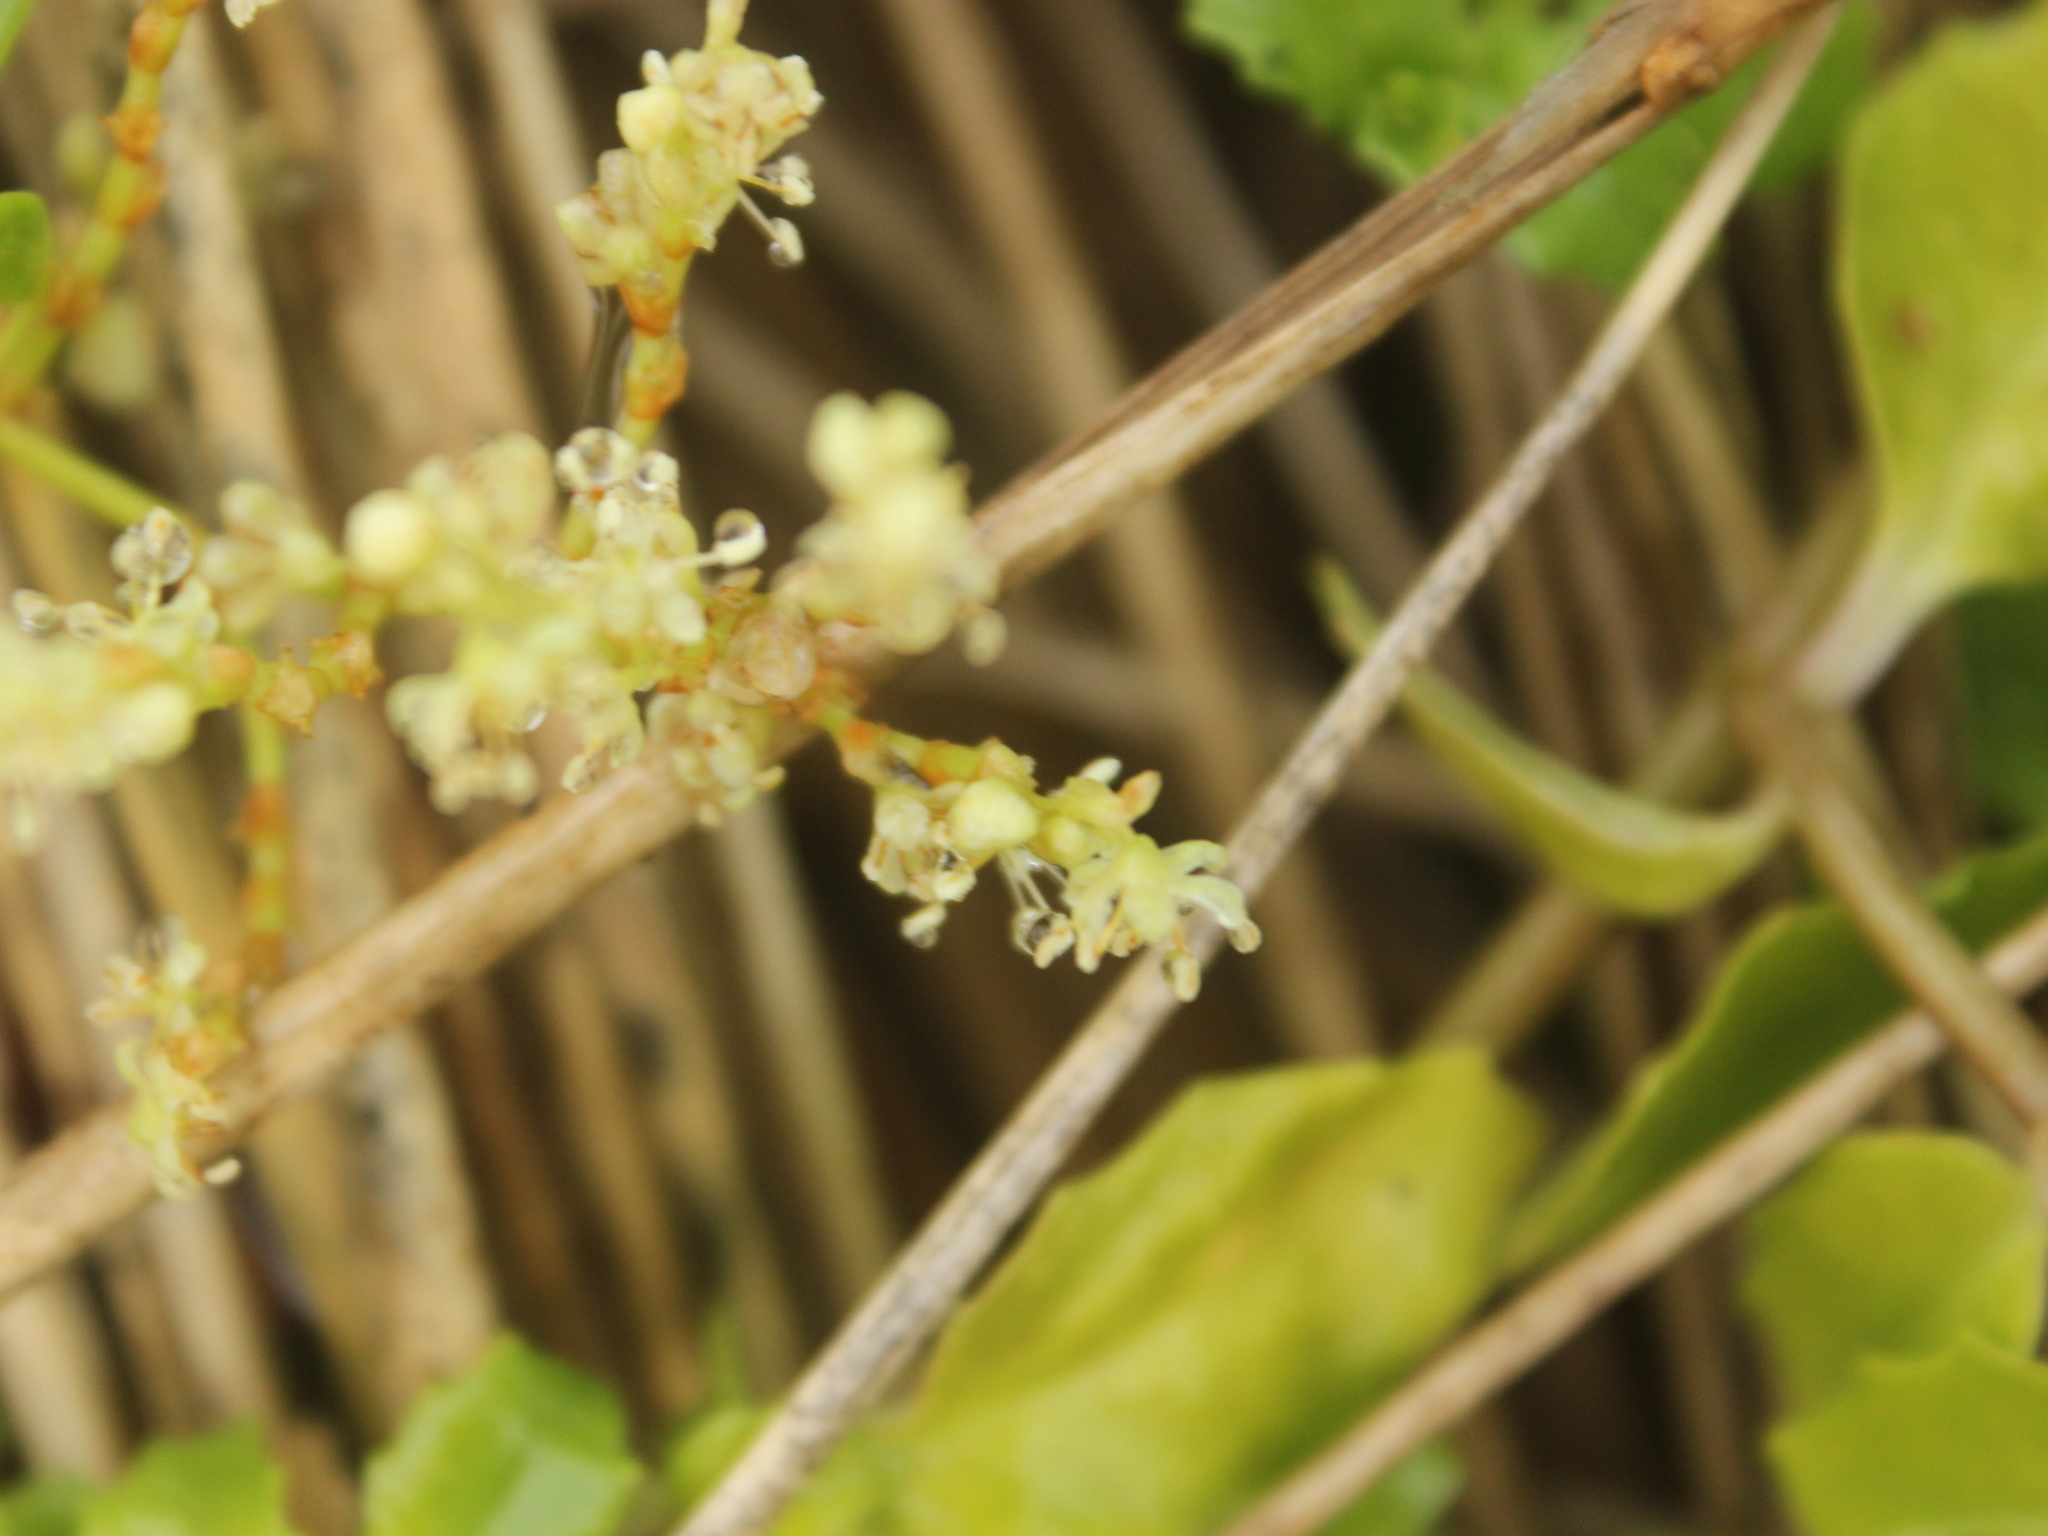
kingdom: Plantae
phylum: Tracheophyta
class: Magnoliopsida
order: Caryophyllales
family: Polygonaceae
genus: Muehlenbeckia
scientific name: Muehlenbeckia australis
